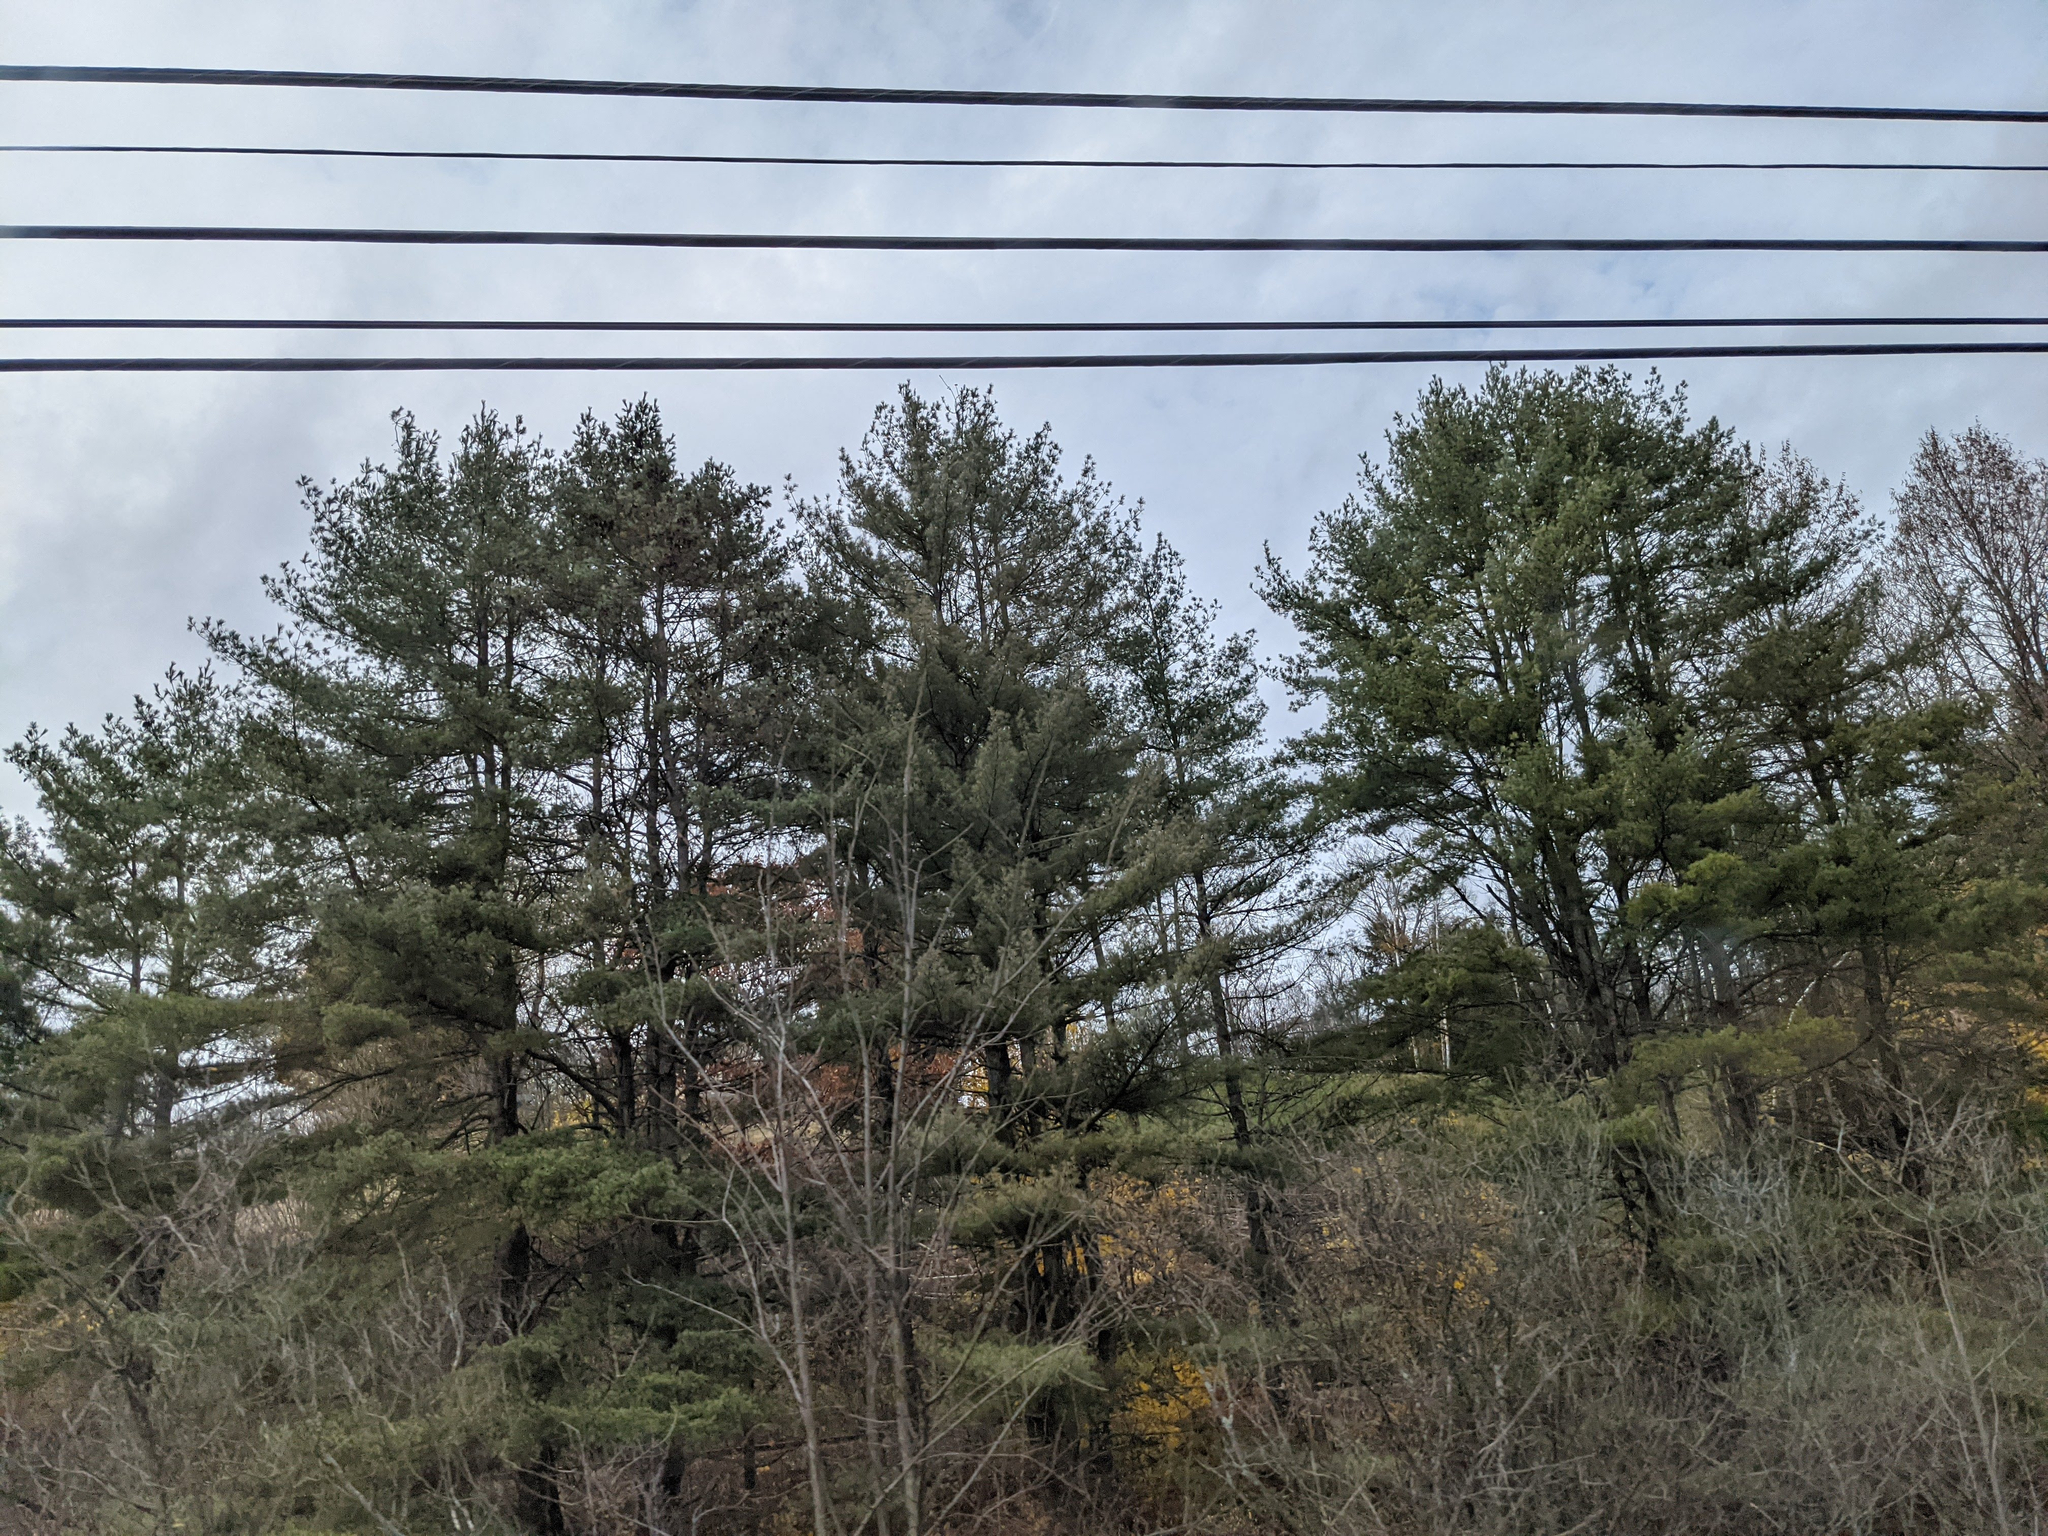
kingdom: Plantae
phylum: Tracheophyta
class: Pinopsida
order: Pinales
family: Pinaceae
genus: Pinus
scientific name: Pinus strobus
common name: Weymouth pine
